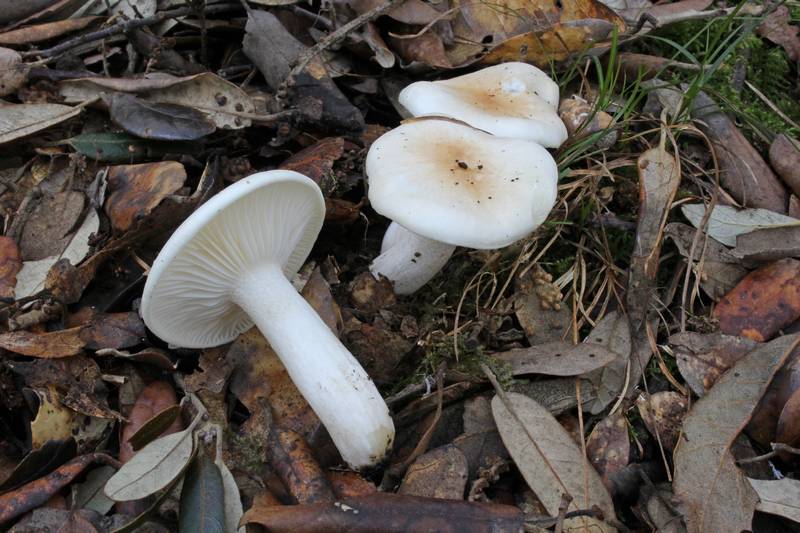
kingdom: Fungi
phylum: Basidiomycota
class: Agaricomycetes
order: Agaricales
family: Hygrophoraceae
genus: Hygrophorus
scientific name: Hygrophorus leucophaeo-ilicis
